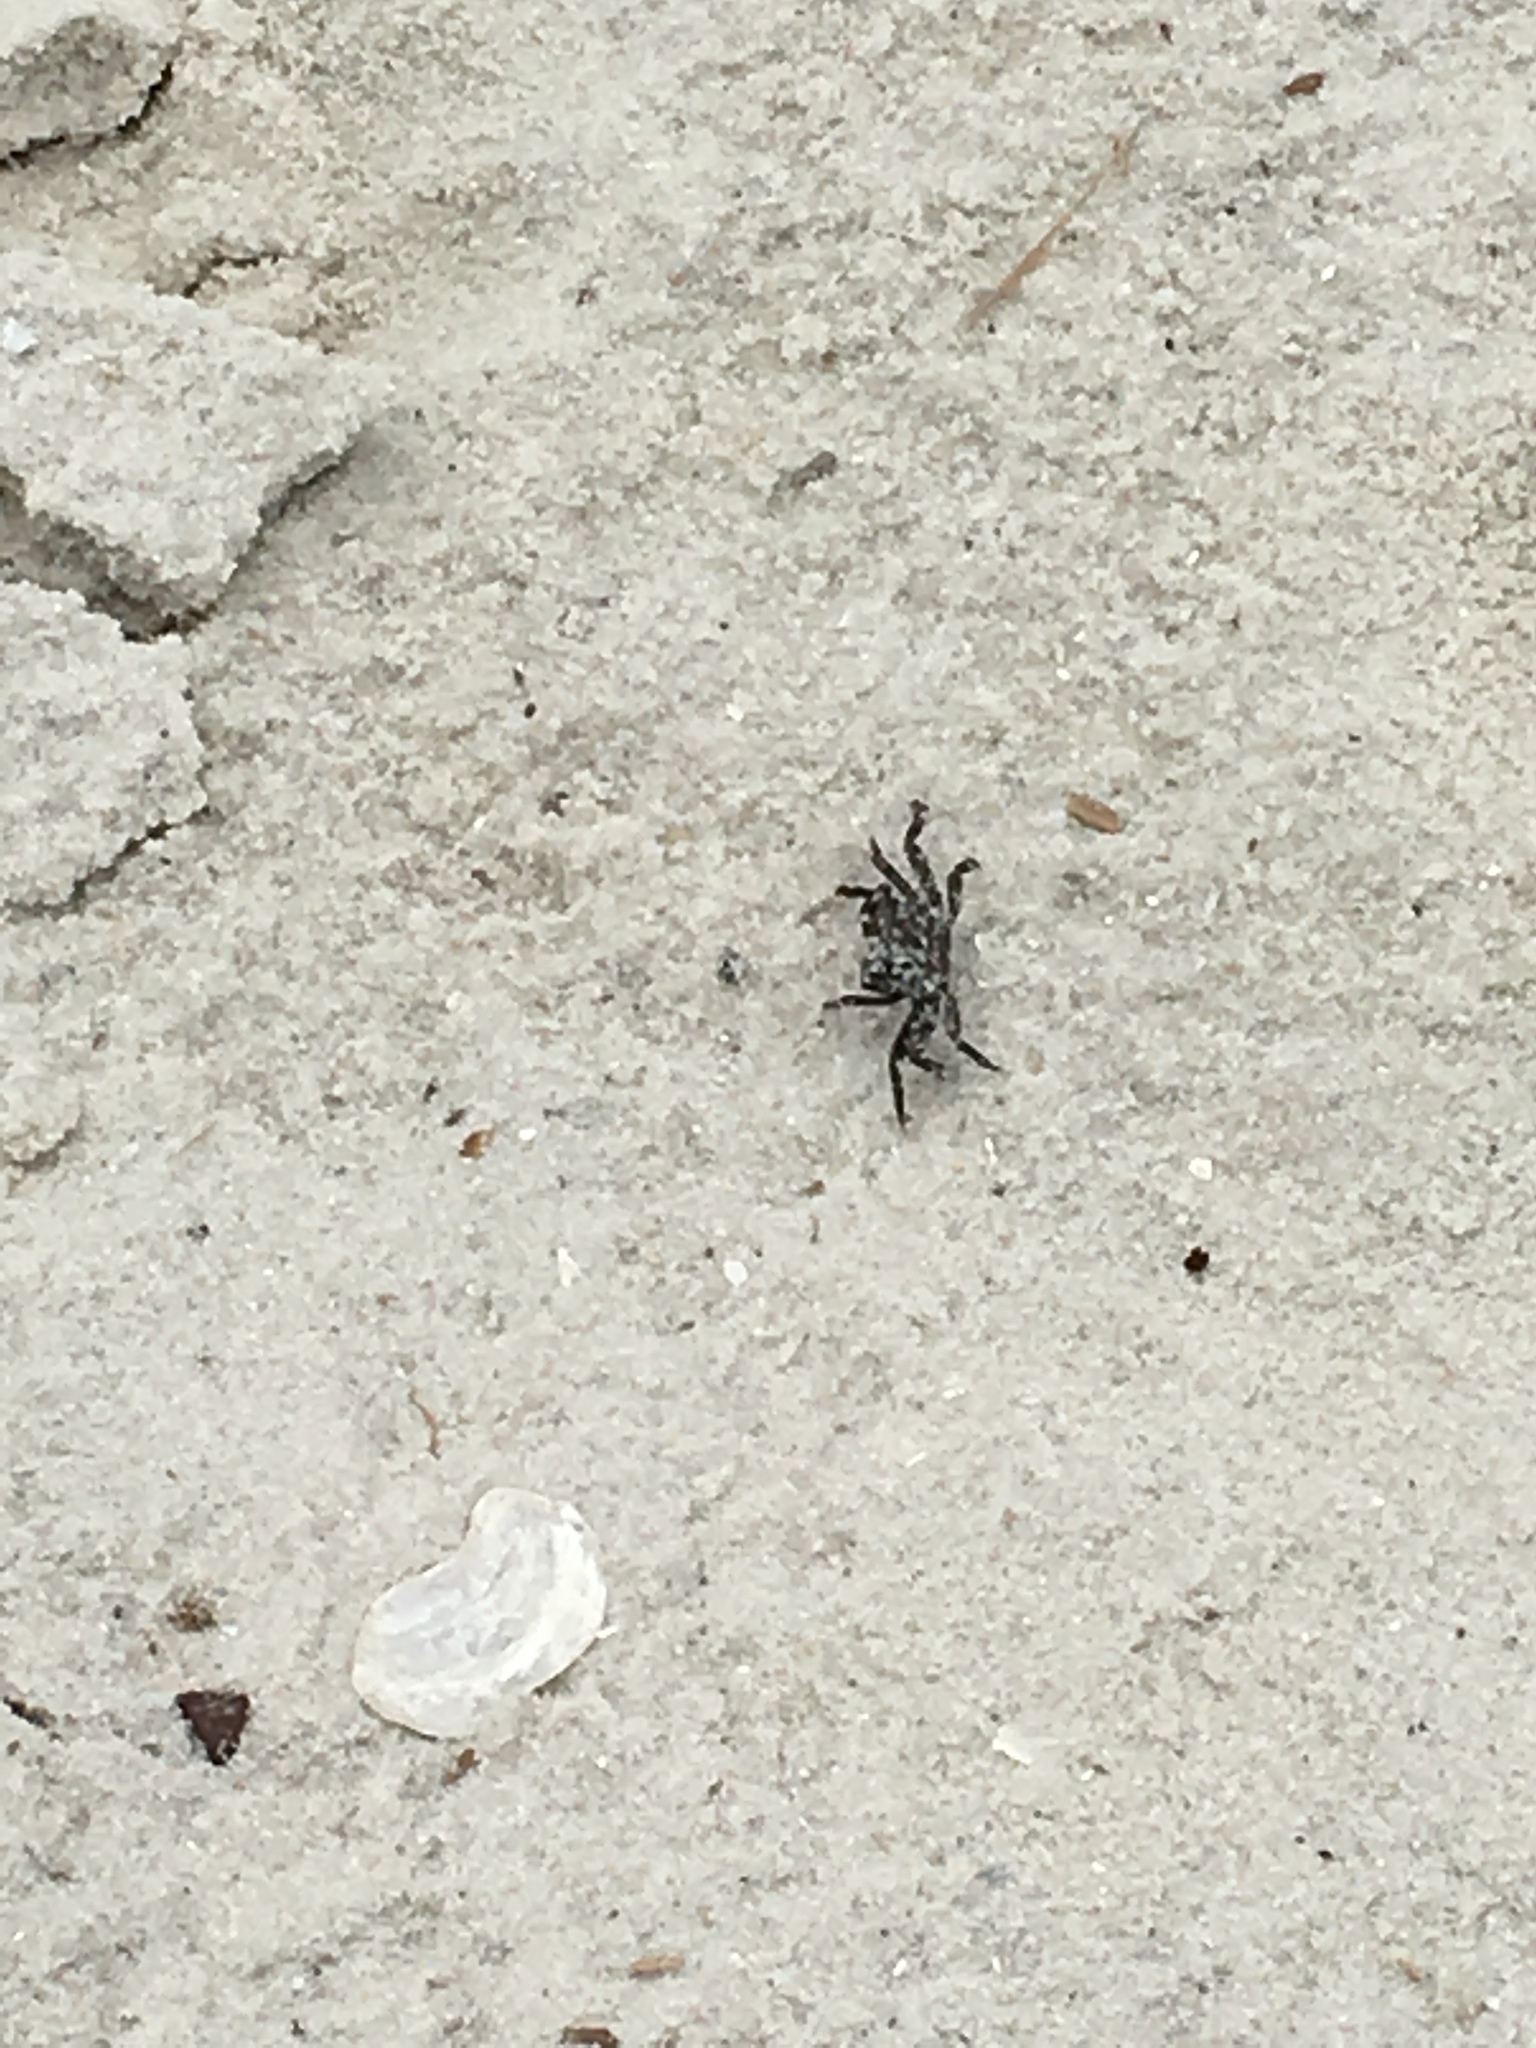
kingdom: Animalia
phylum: Arthropoda
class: Malacostraca
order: Decapoda
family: Sesarmidae
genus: Armases
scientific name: Armases cinereum
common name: Squareback marsh crab
